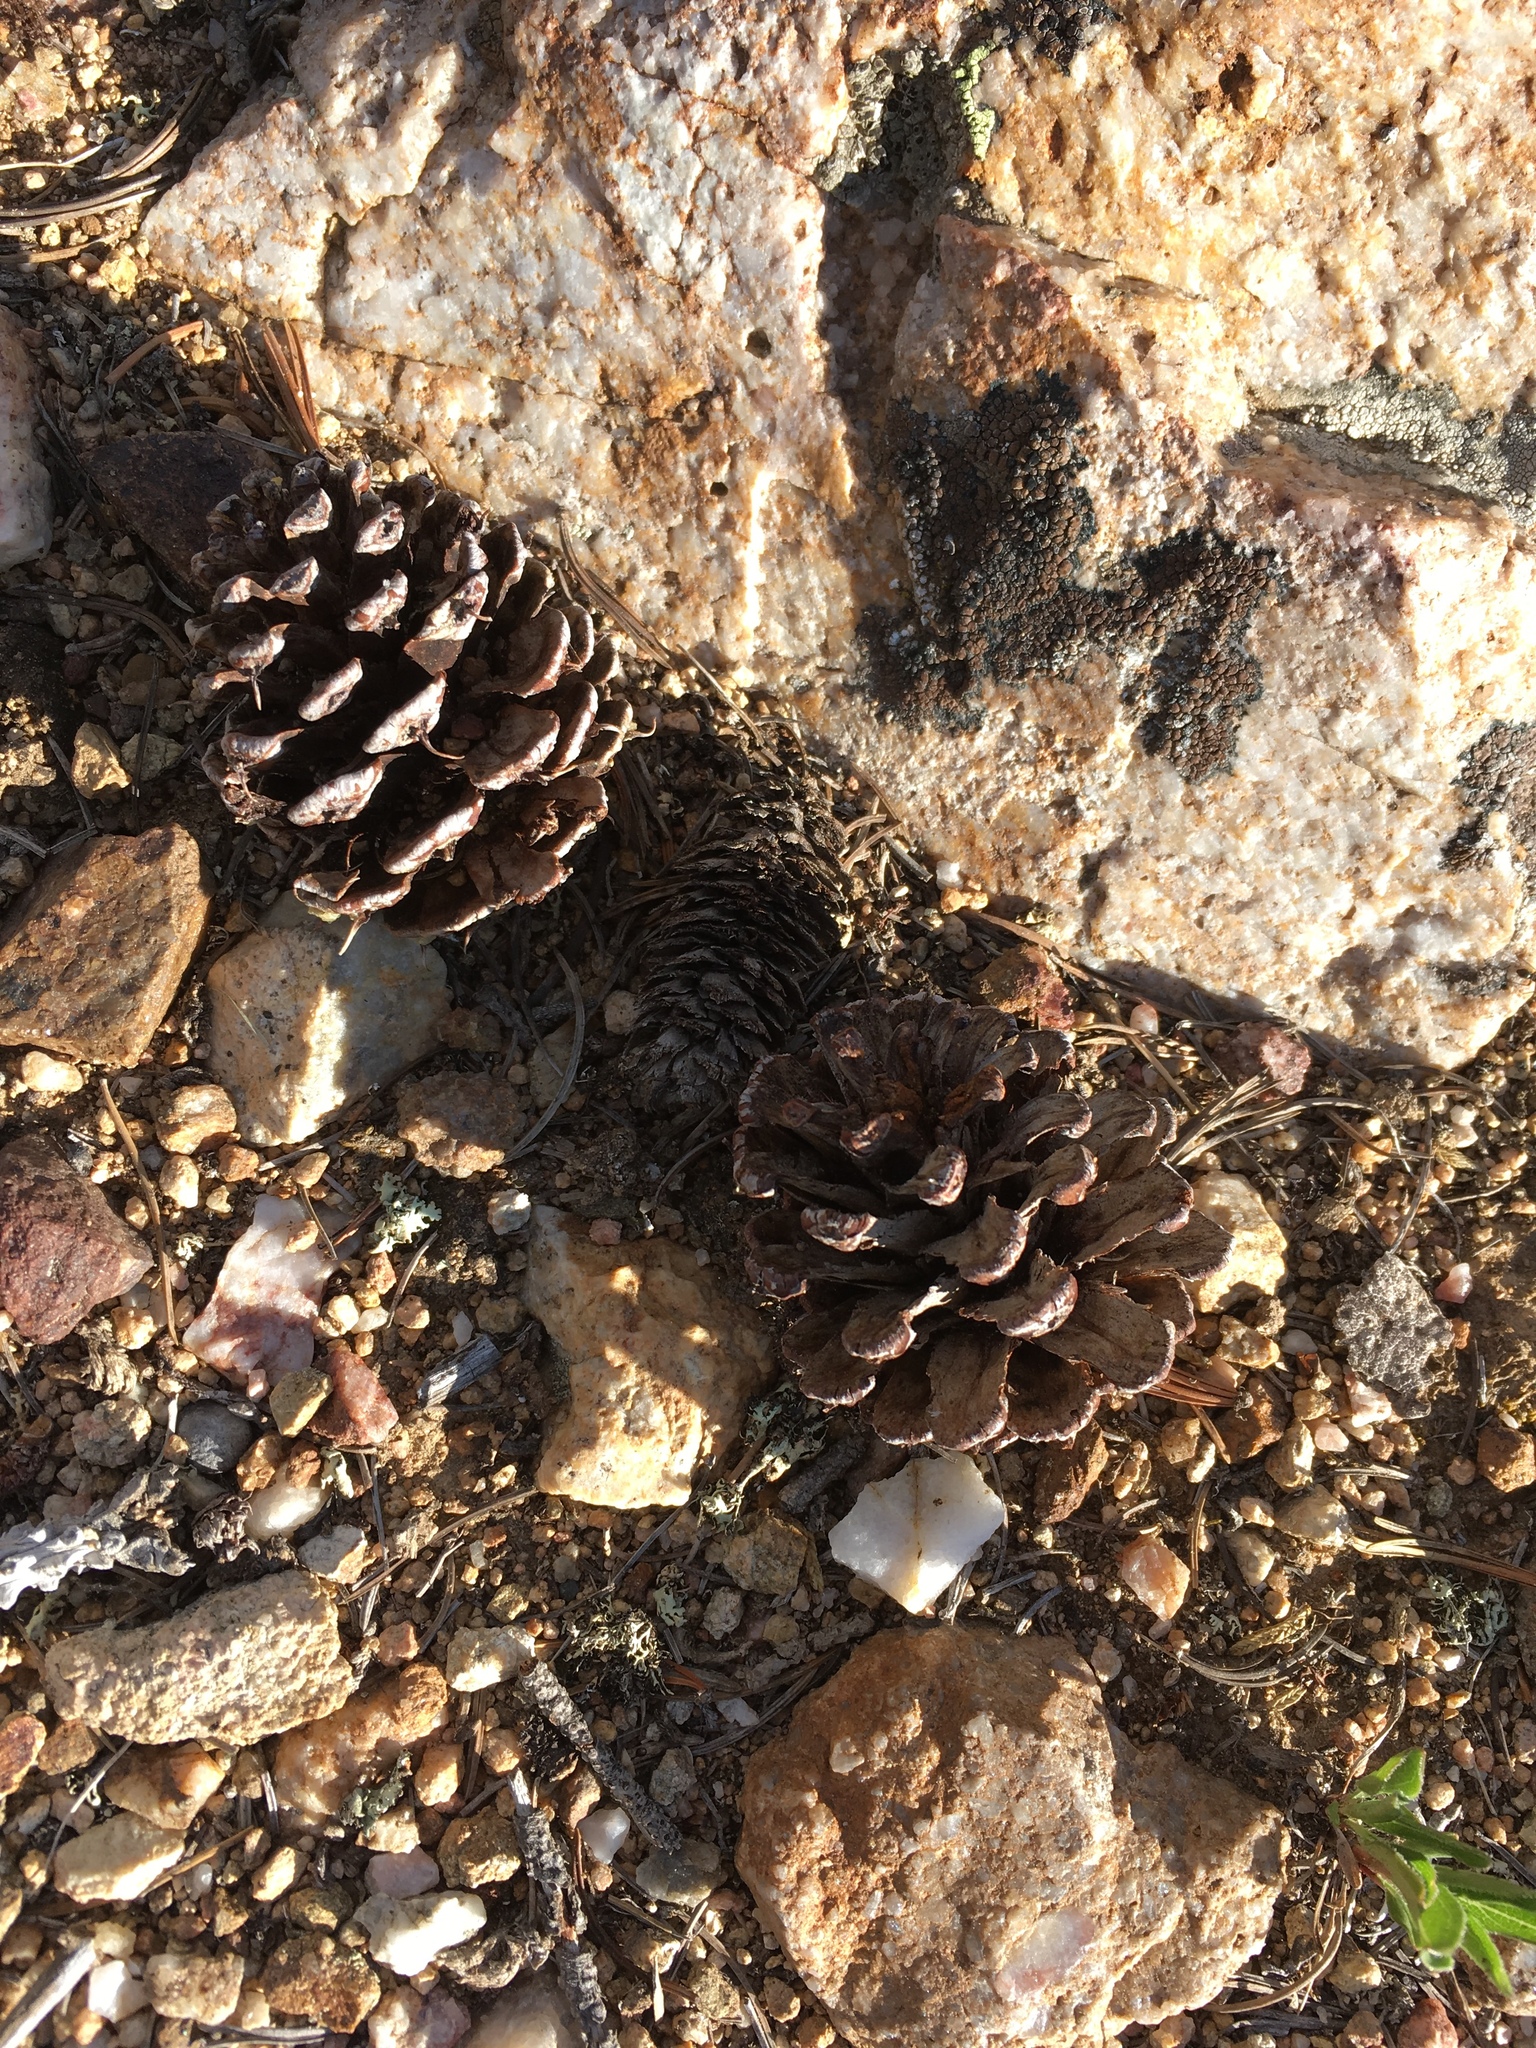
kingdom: Plantae
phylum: Tracheophyta
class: Pinopsida
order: Pinales
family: Pinaceae
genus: Pinus
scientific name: Pinus aristata
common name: Colorado bristlecone pine
